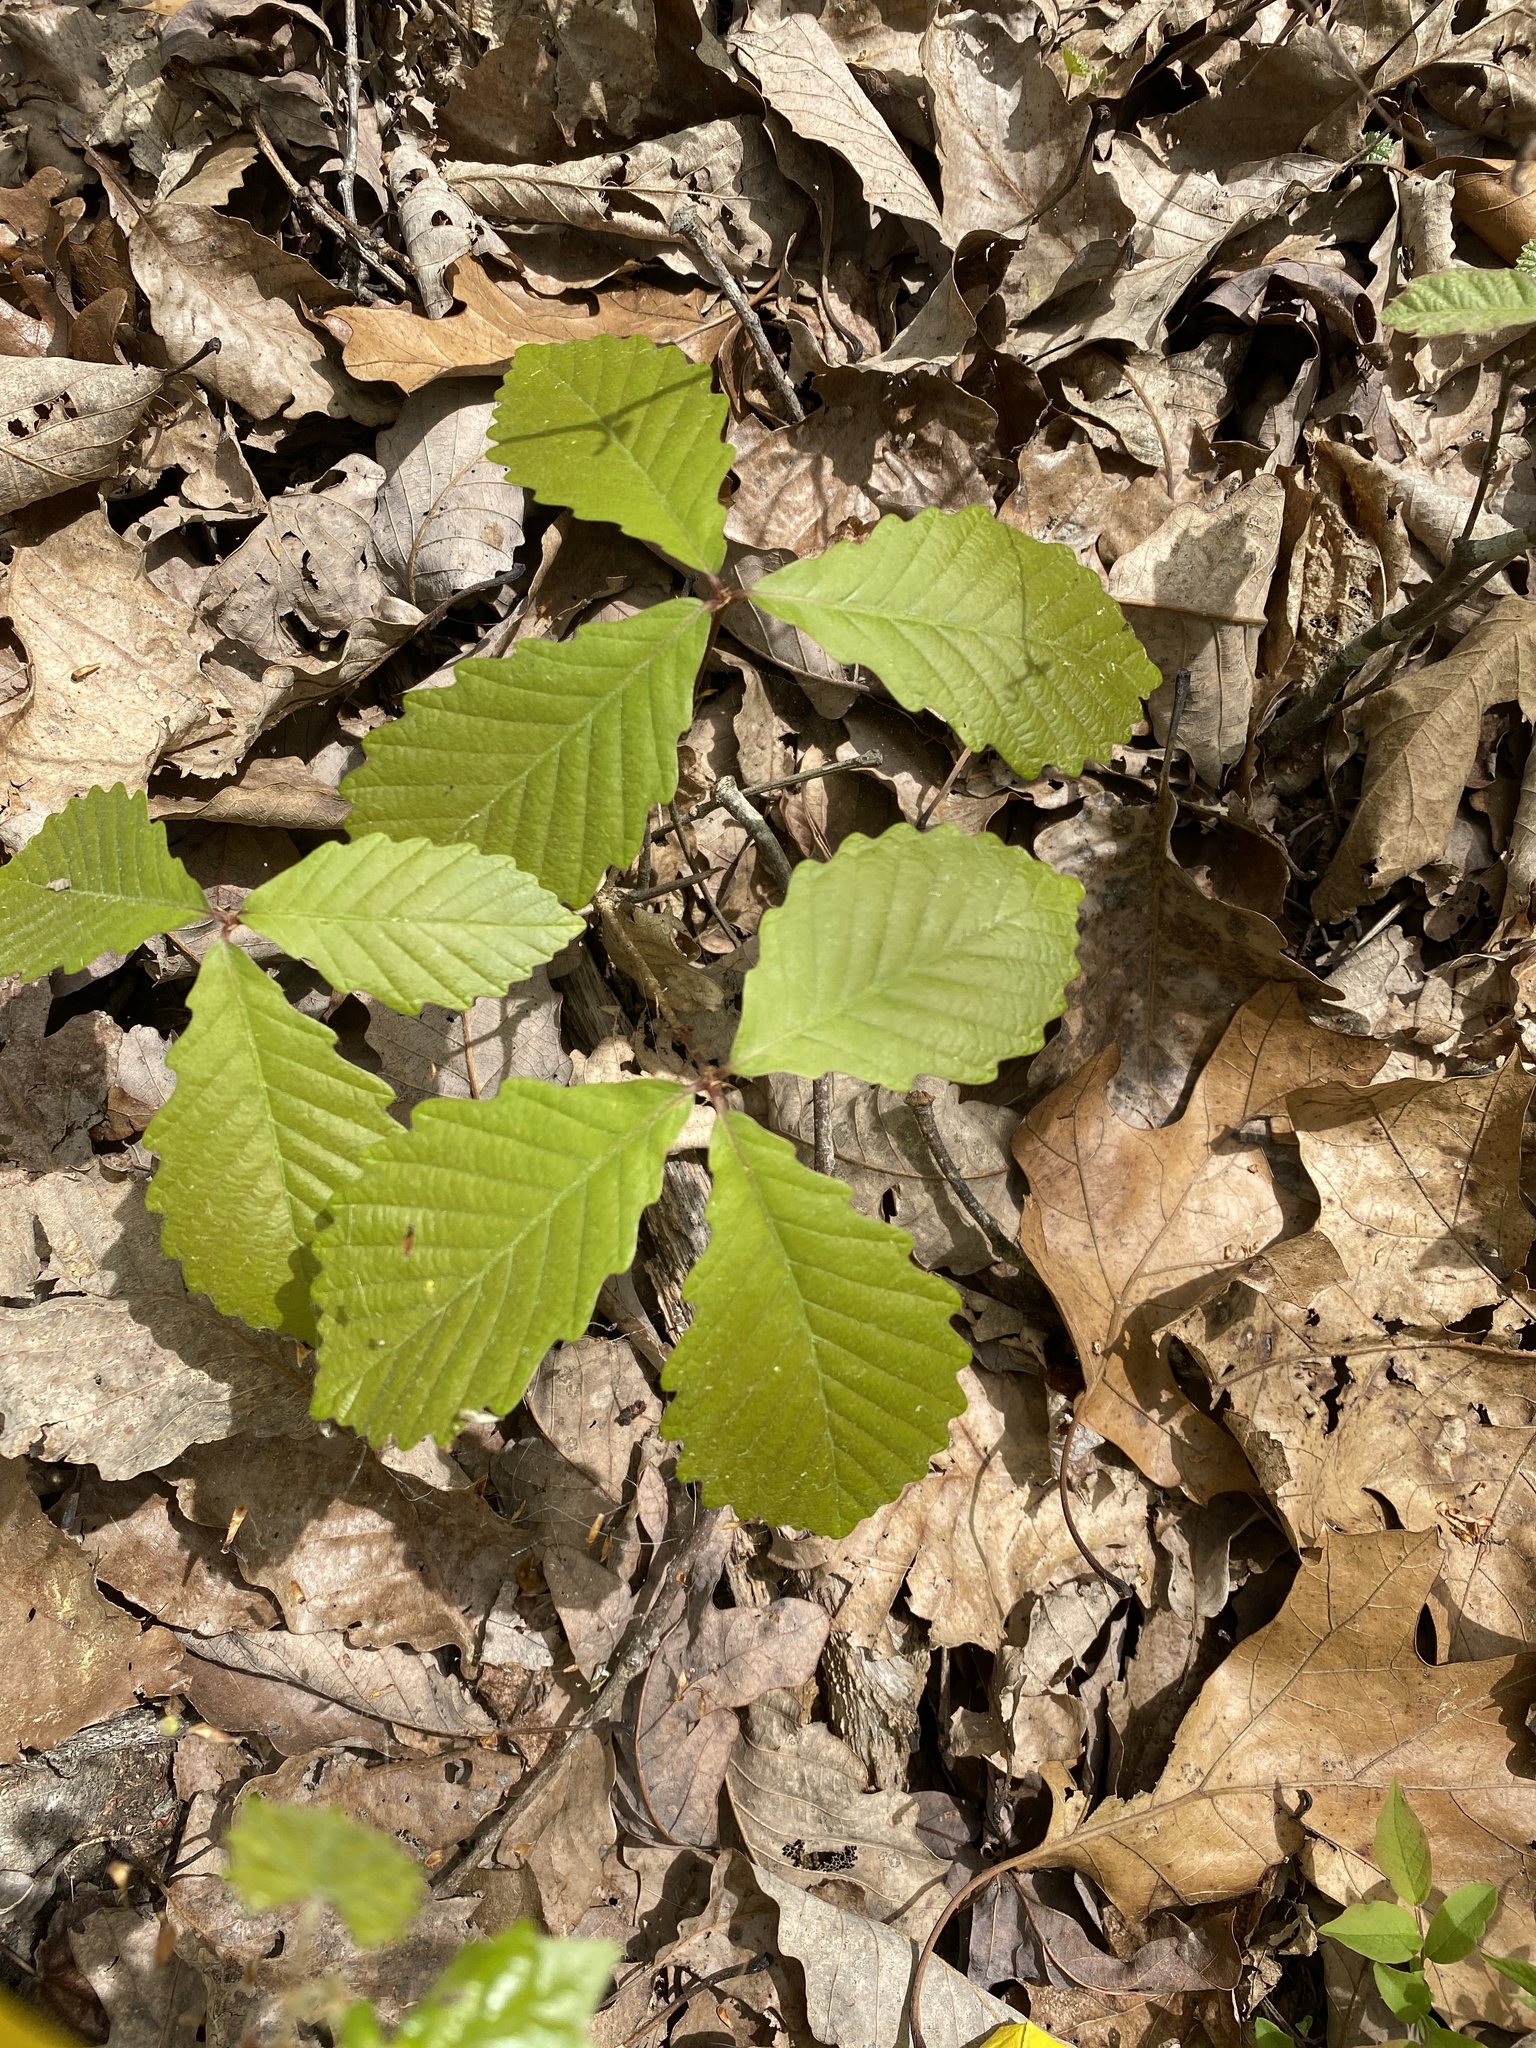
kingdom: Plantae
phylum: Tracheophyta
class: Magnoliopsida
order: Fagales
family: Fagaceae
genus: Quercus
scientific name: Quercus montana
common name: Chestnut oak
